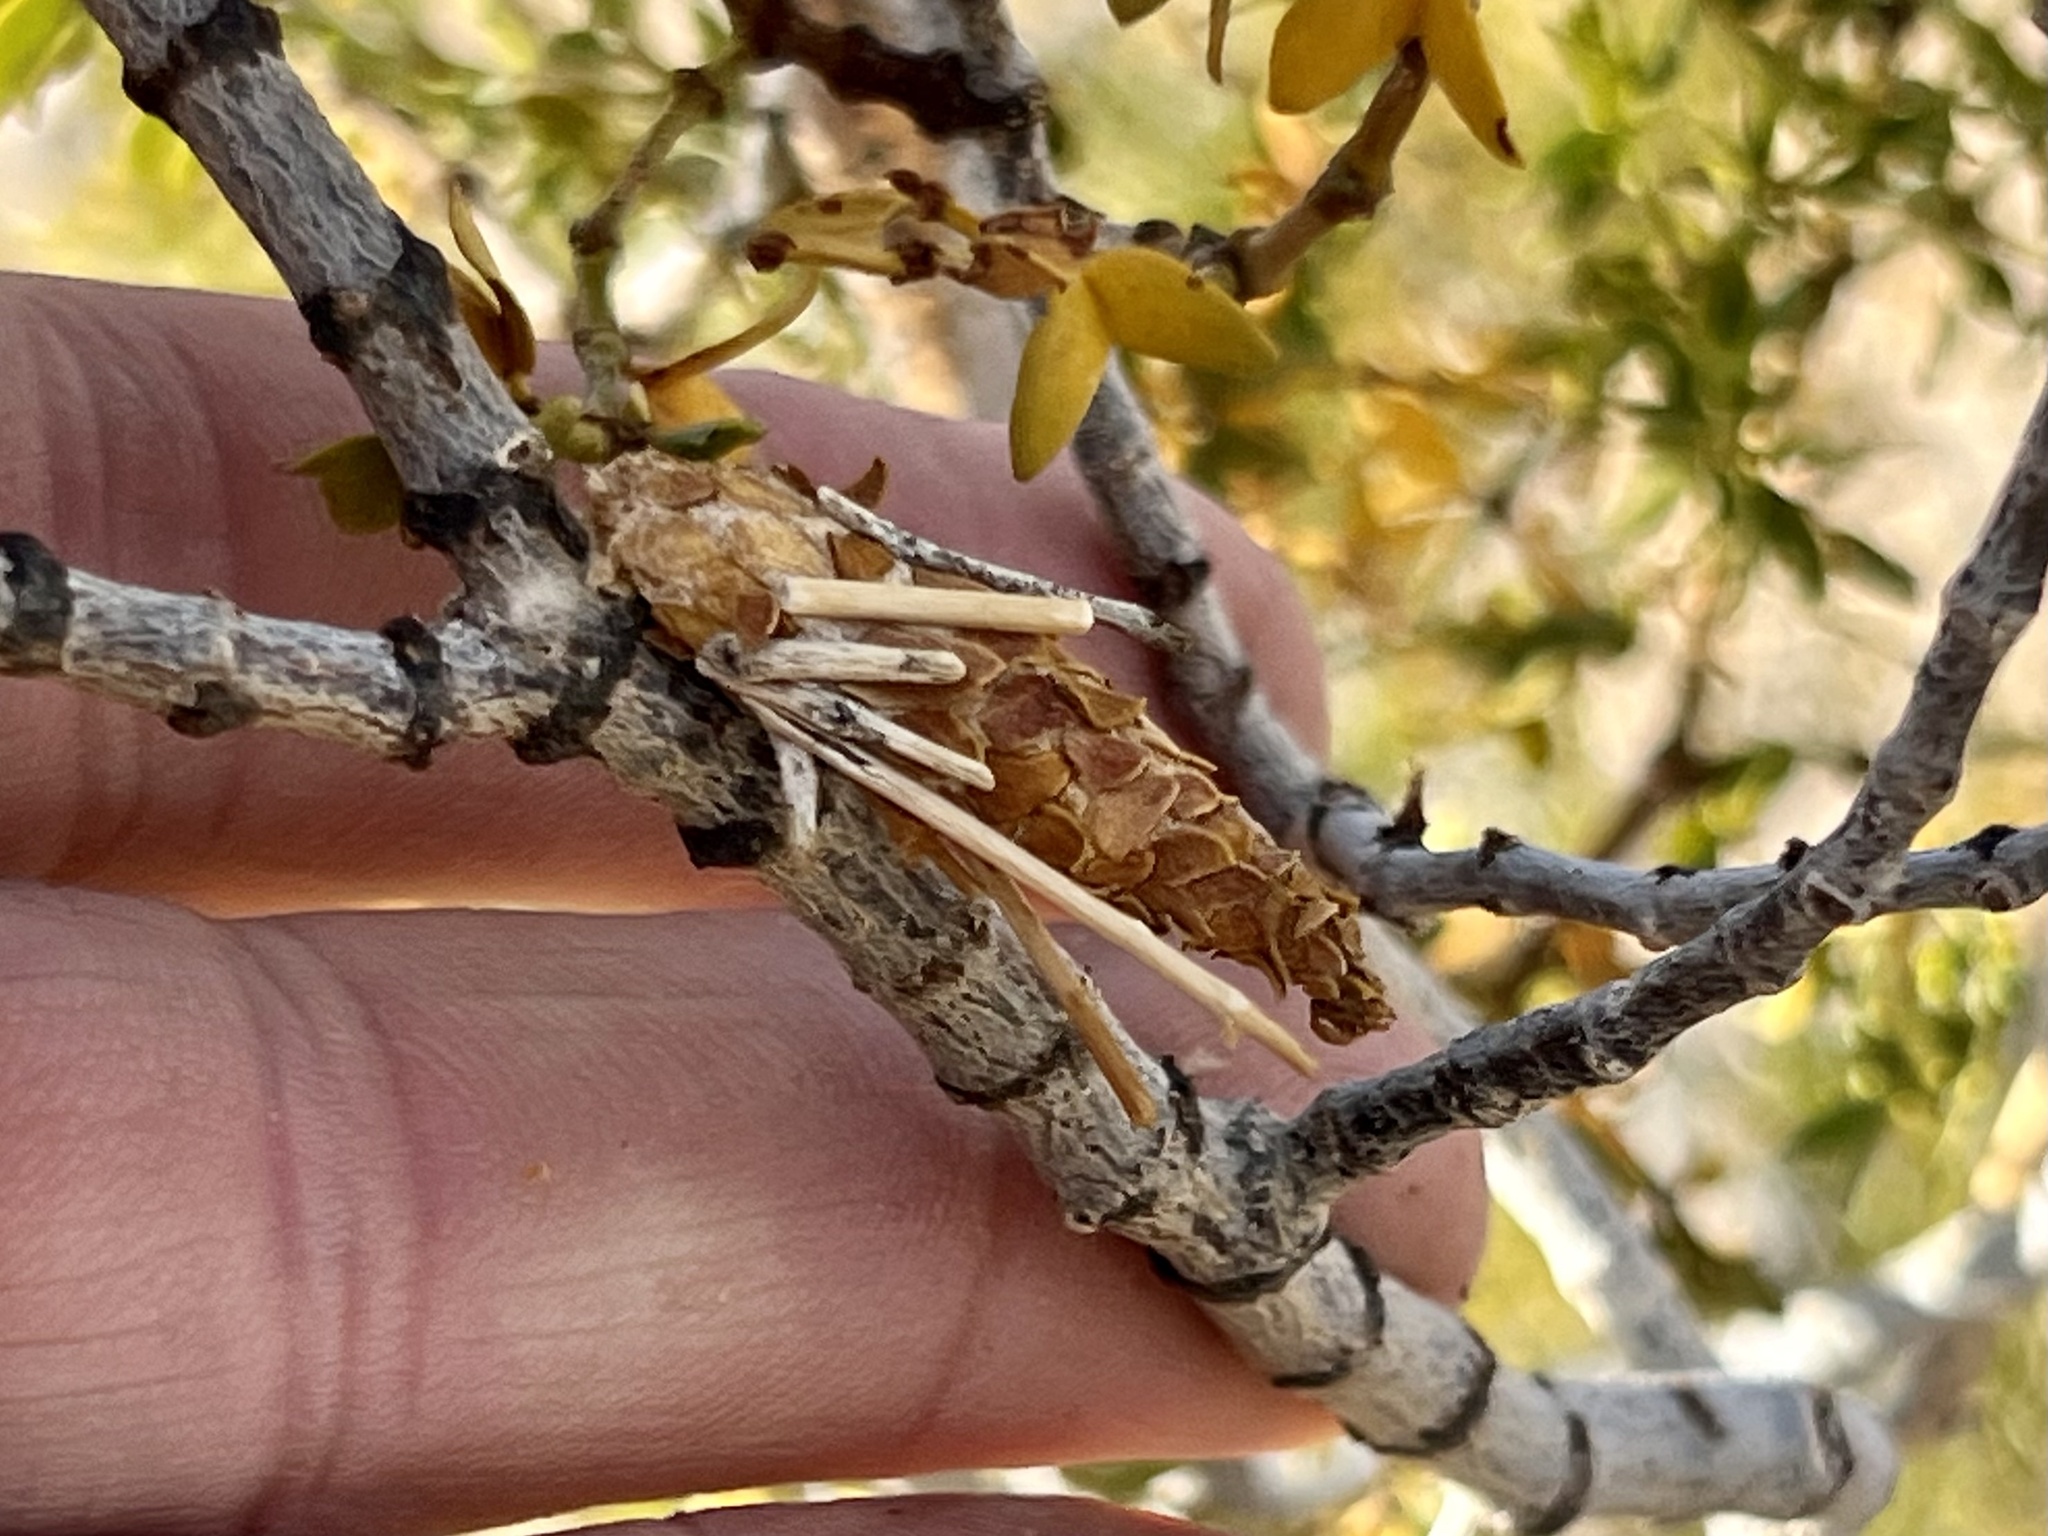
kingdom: Animalia
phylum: Arthropoda
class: Insecta
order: Lepidoptera
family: Psychidae
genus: Thyridopteryx
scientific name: Thyridopteryx meadii
